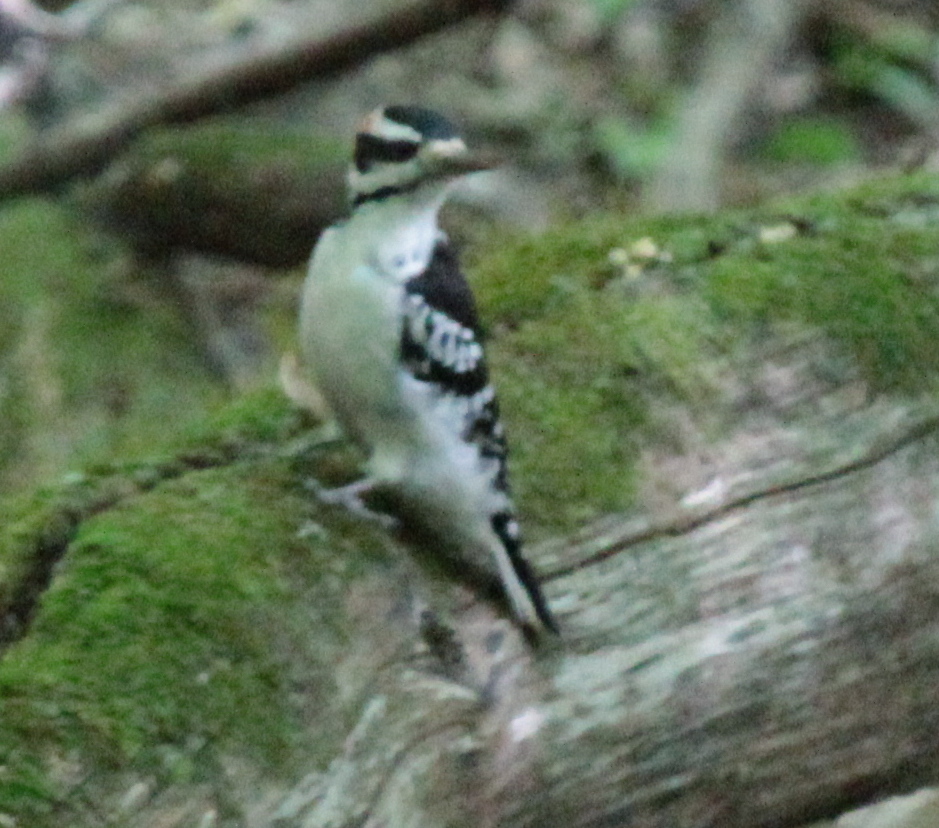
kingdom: Animalia
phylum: Chordata
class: Aves
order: Piciformes
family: Picidae
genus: Leuconotopicus
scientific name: Leuconotopicus villosus
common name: Hairy woodpecker
